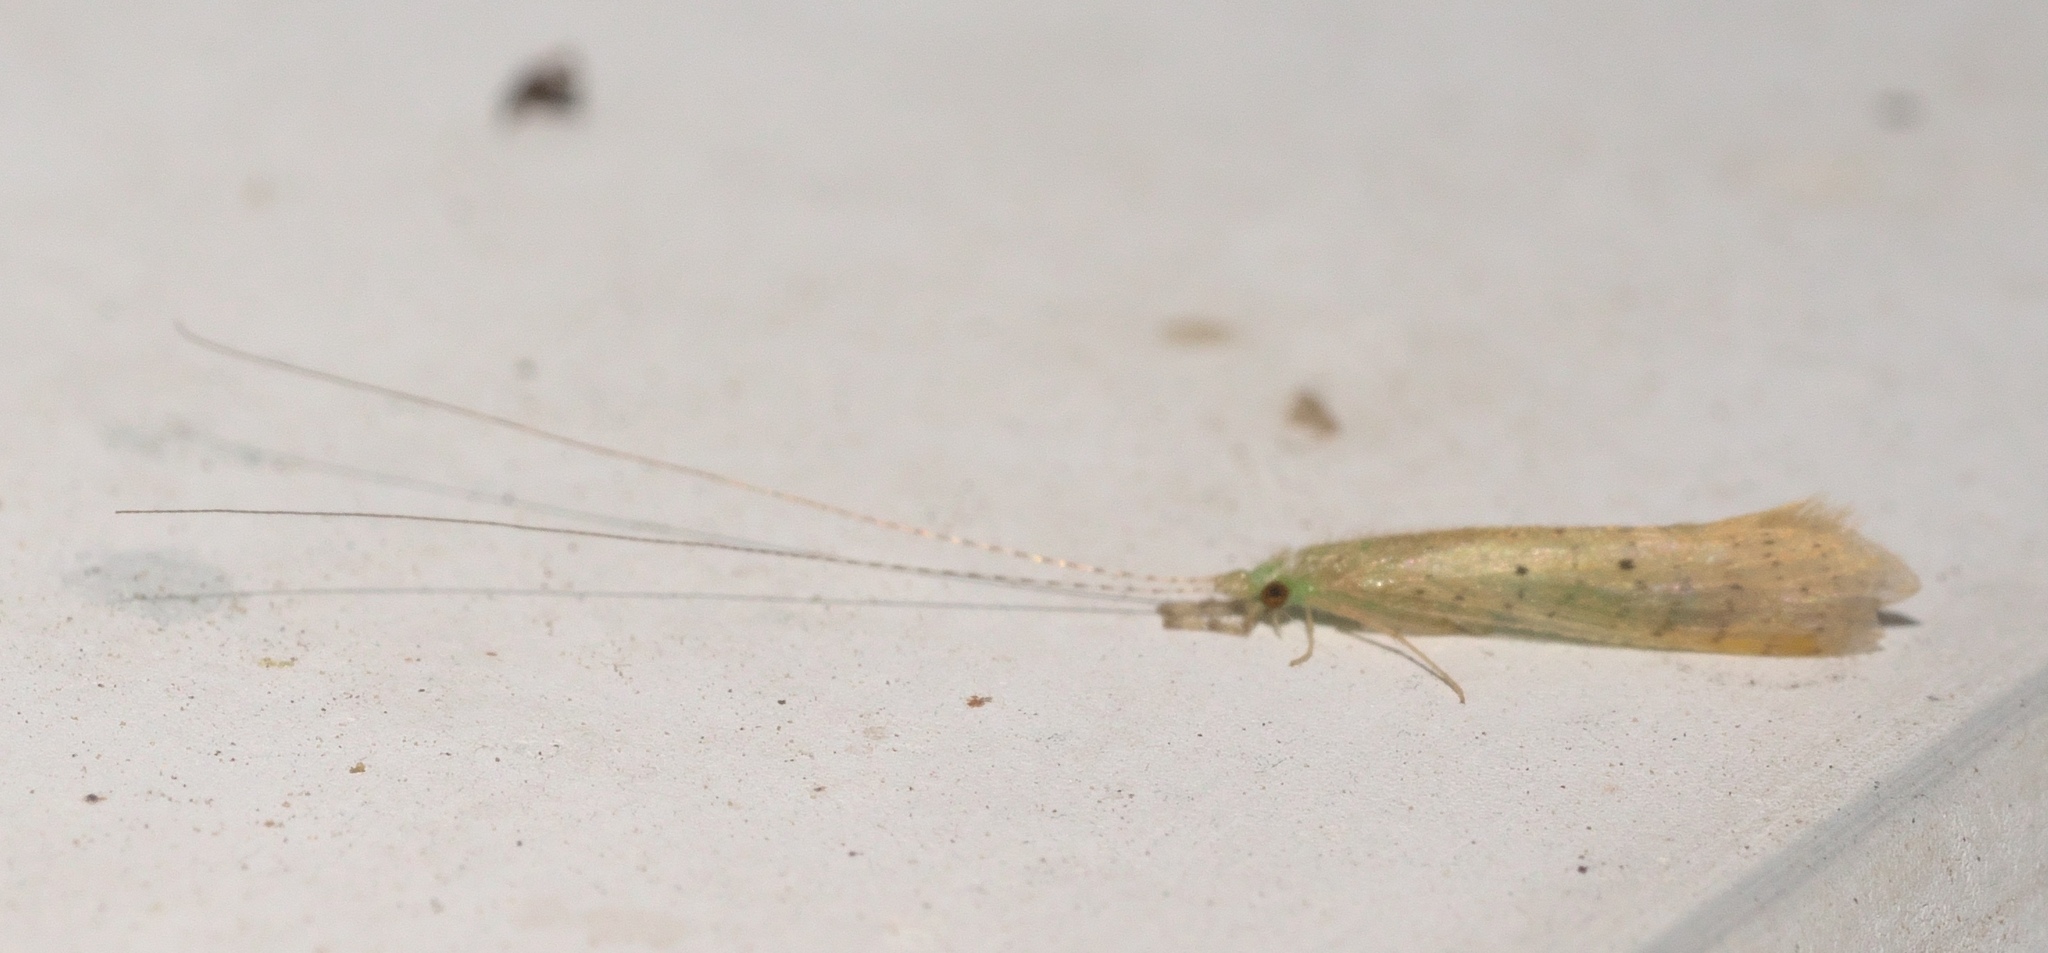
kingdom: Animalia
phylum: Arthropoda
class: Insecta
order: Trichoptera
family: Leptoceridae
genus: Nectopsyche
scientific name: Nectopsyche pavida
